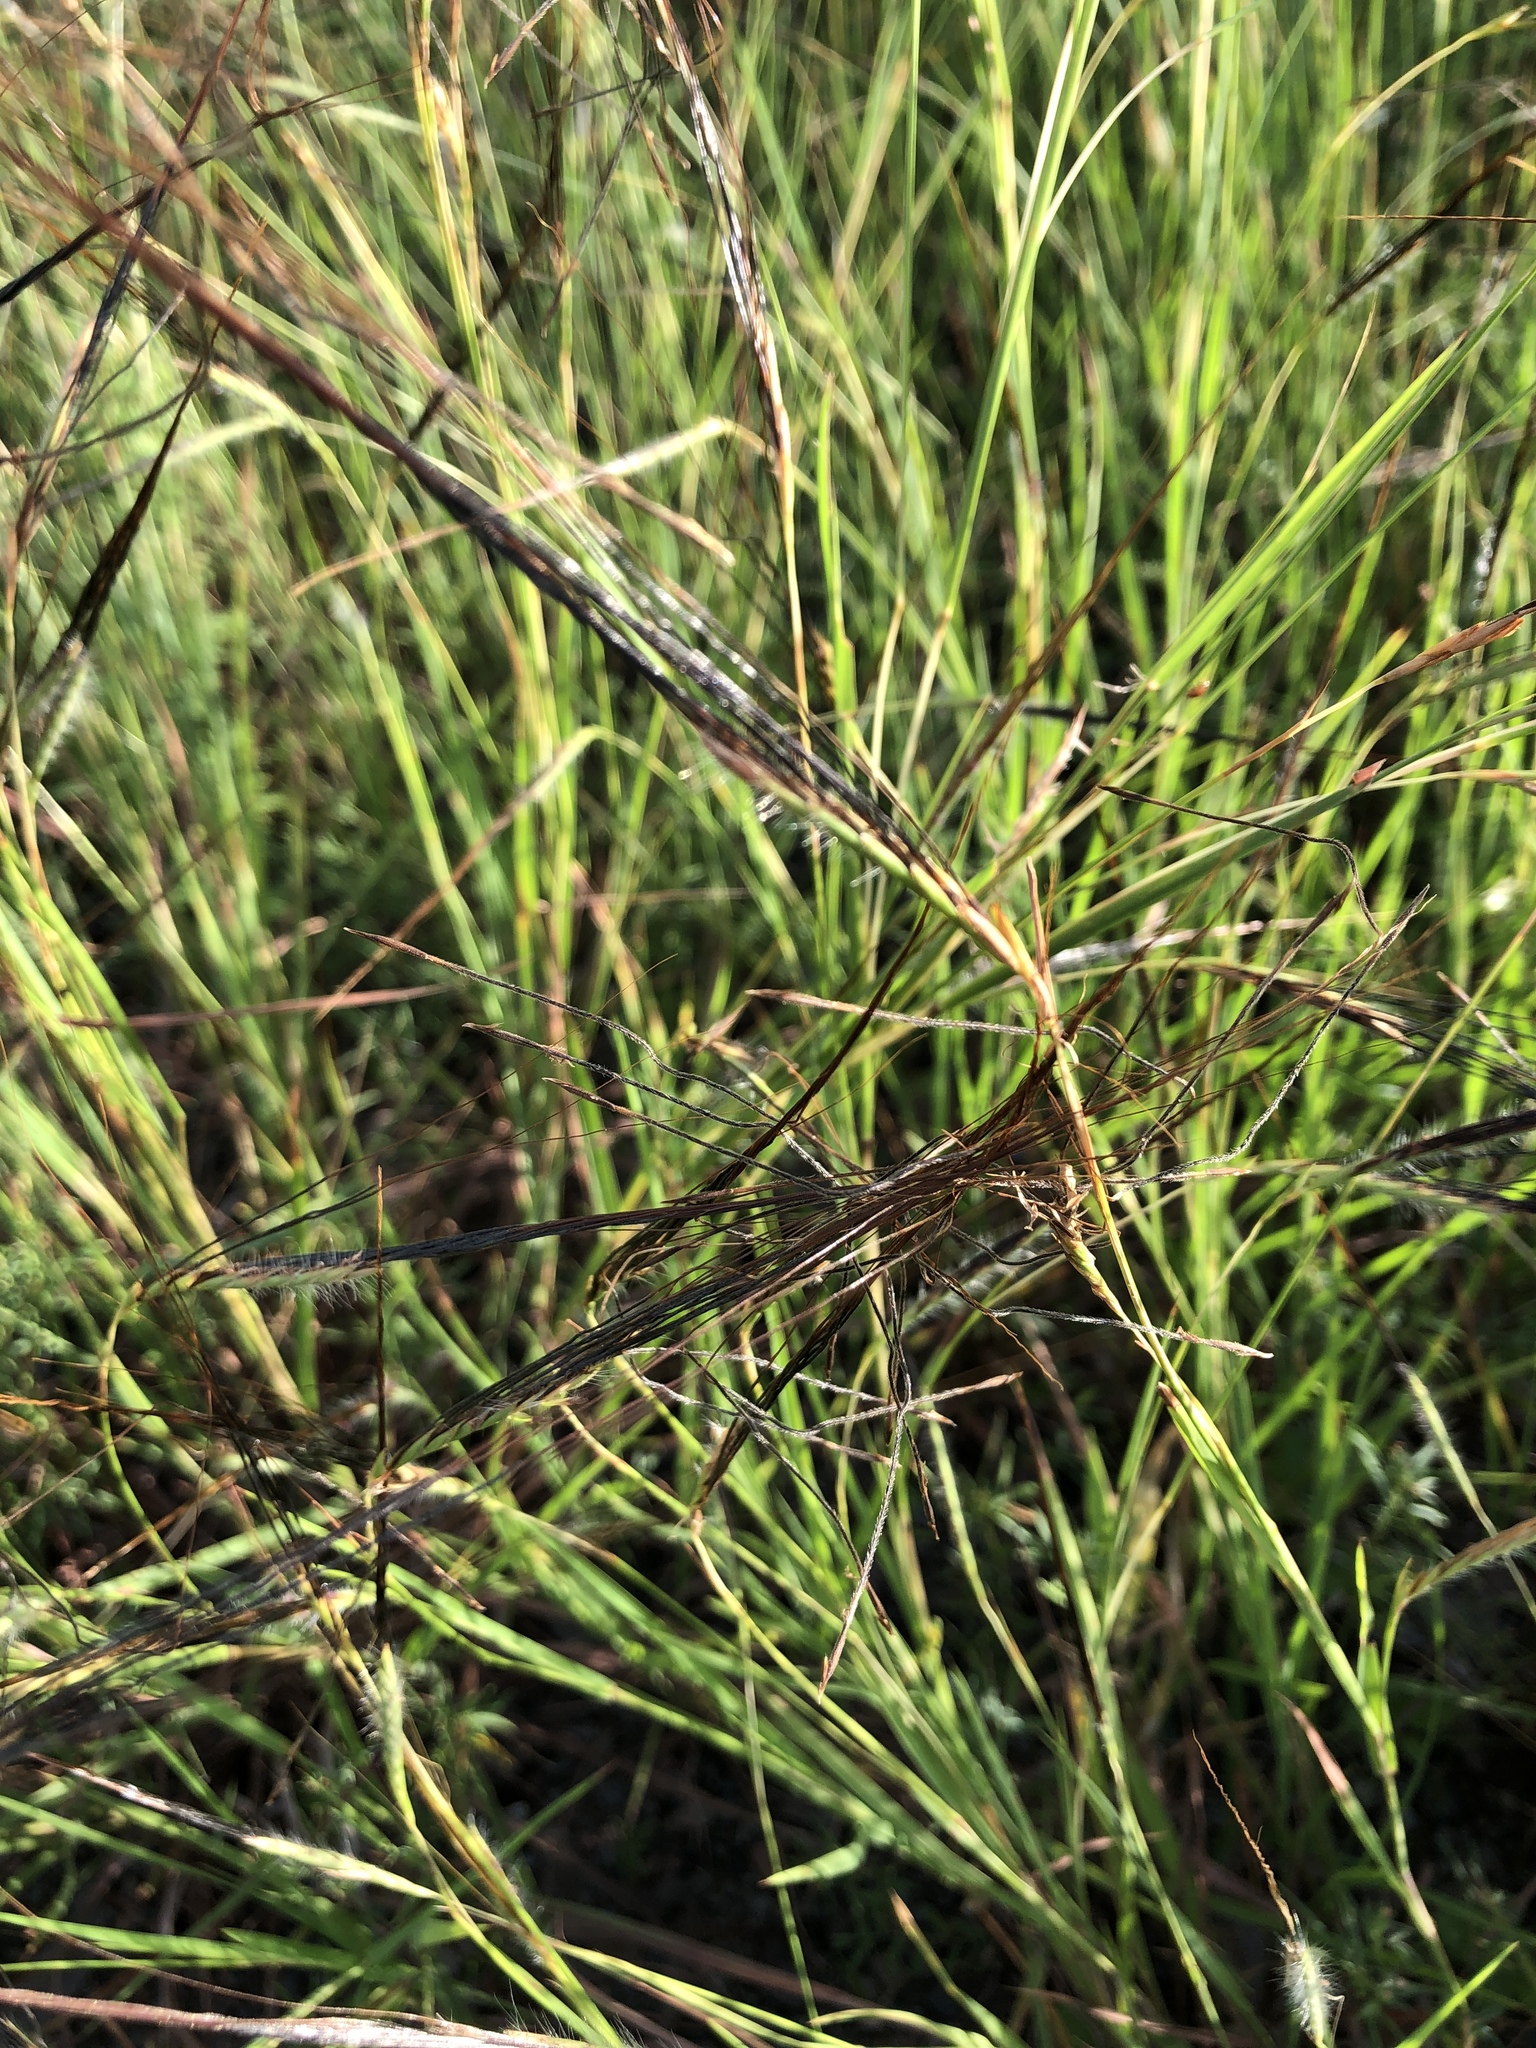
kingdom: Plantae
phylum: Tracheophyta
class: Liliopsida
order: Poales
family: Poaceae
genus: Heteropogon
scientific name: Heteropogon contortus
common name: Tanglehead
